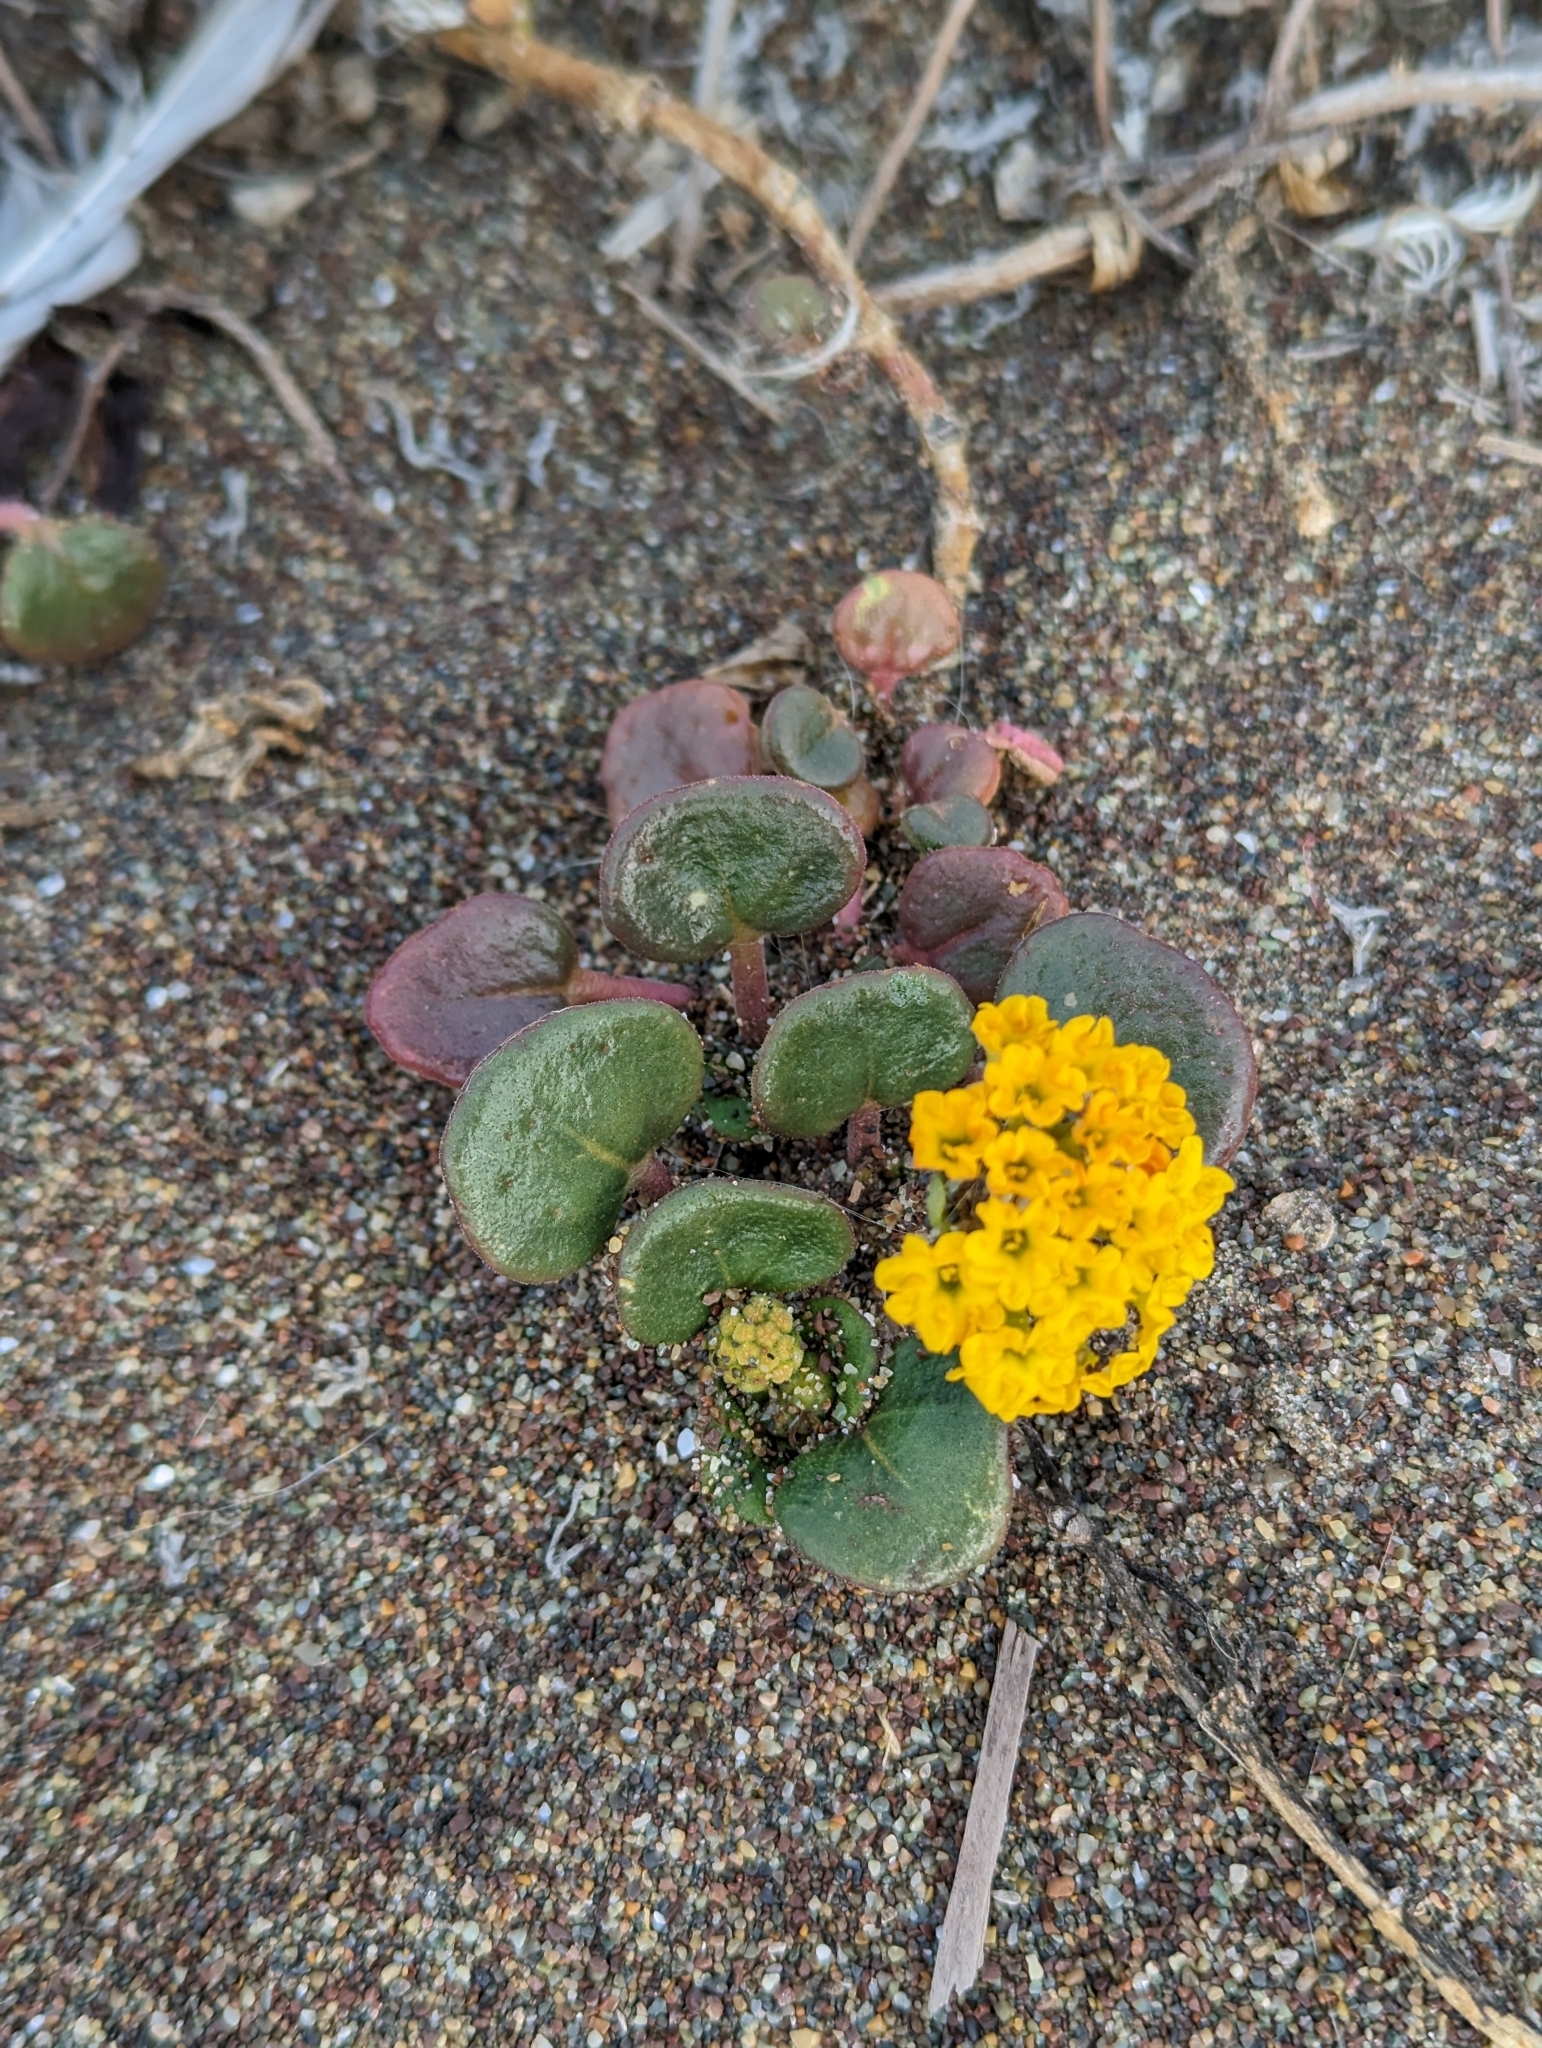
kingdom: Plantae
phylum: Tracheophyta
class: Magnoliopsida
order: Caryophyllales
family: Nyctaginaceae
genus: Abronia
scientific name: Abronia latifolia
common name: Yellow sand-verbena
